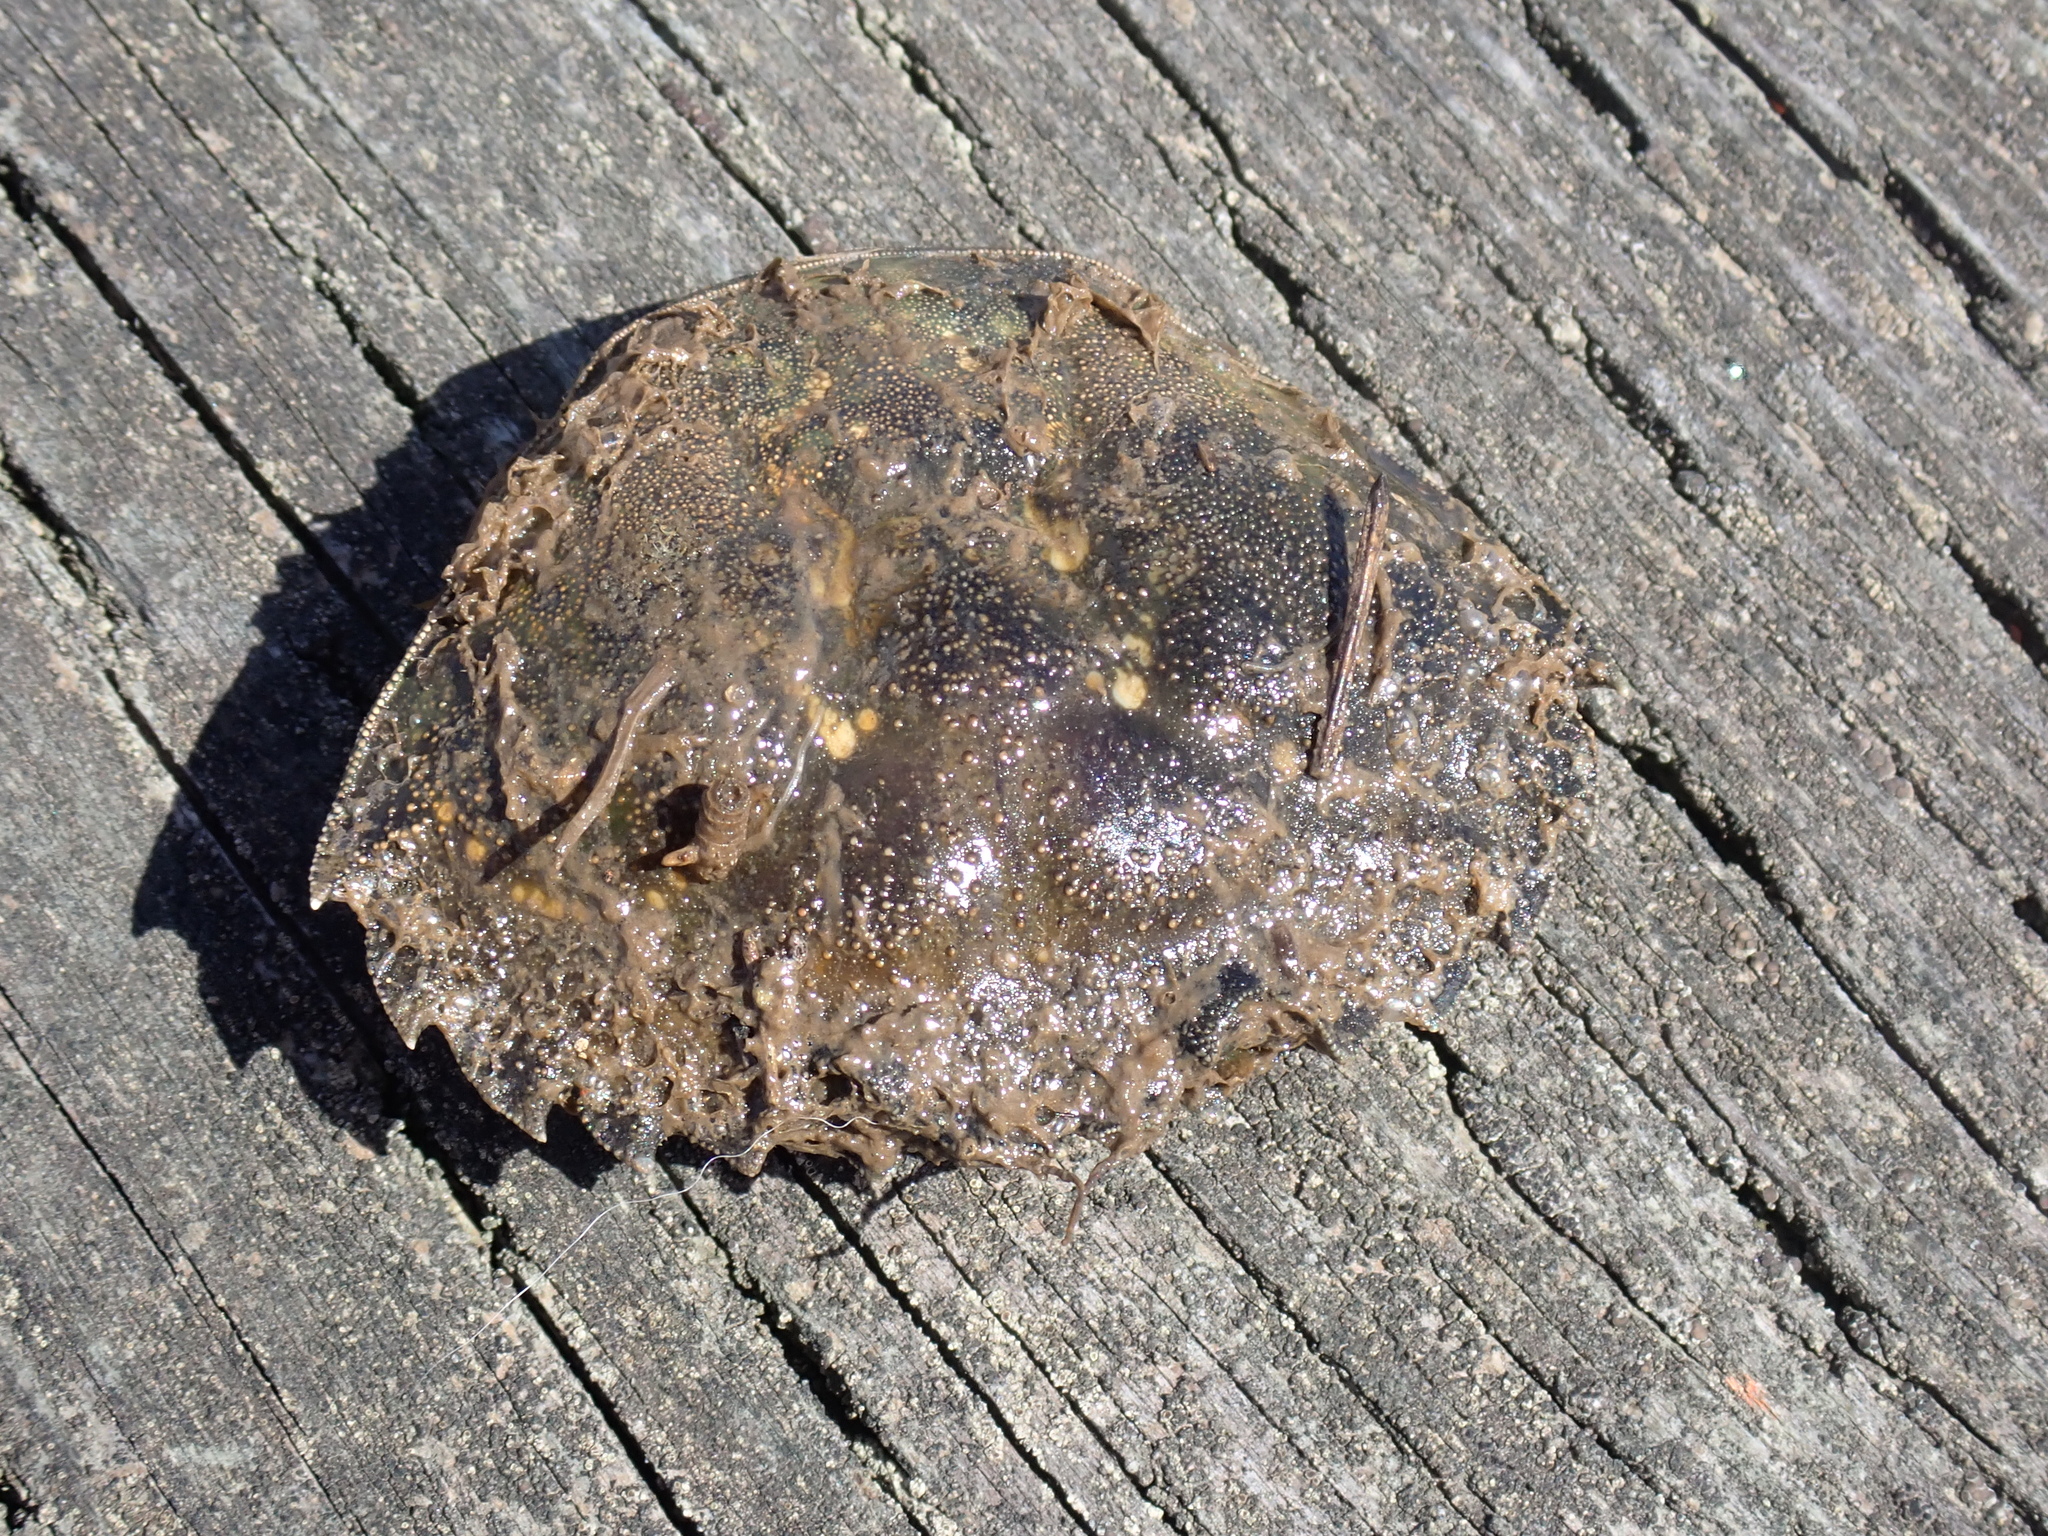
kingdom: Animalia
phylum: Arthropoda
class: Malacostraca
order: Decapoda
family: Carcinidae
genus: Carcinus
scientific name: Carcinus maenas
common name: European green crab
